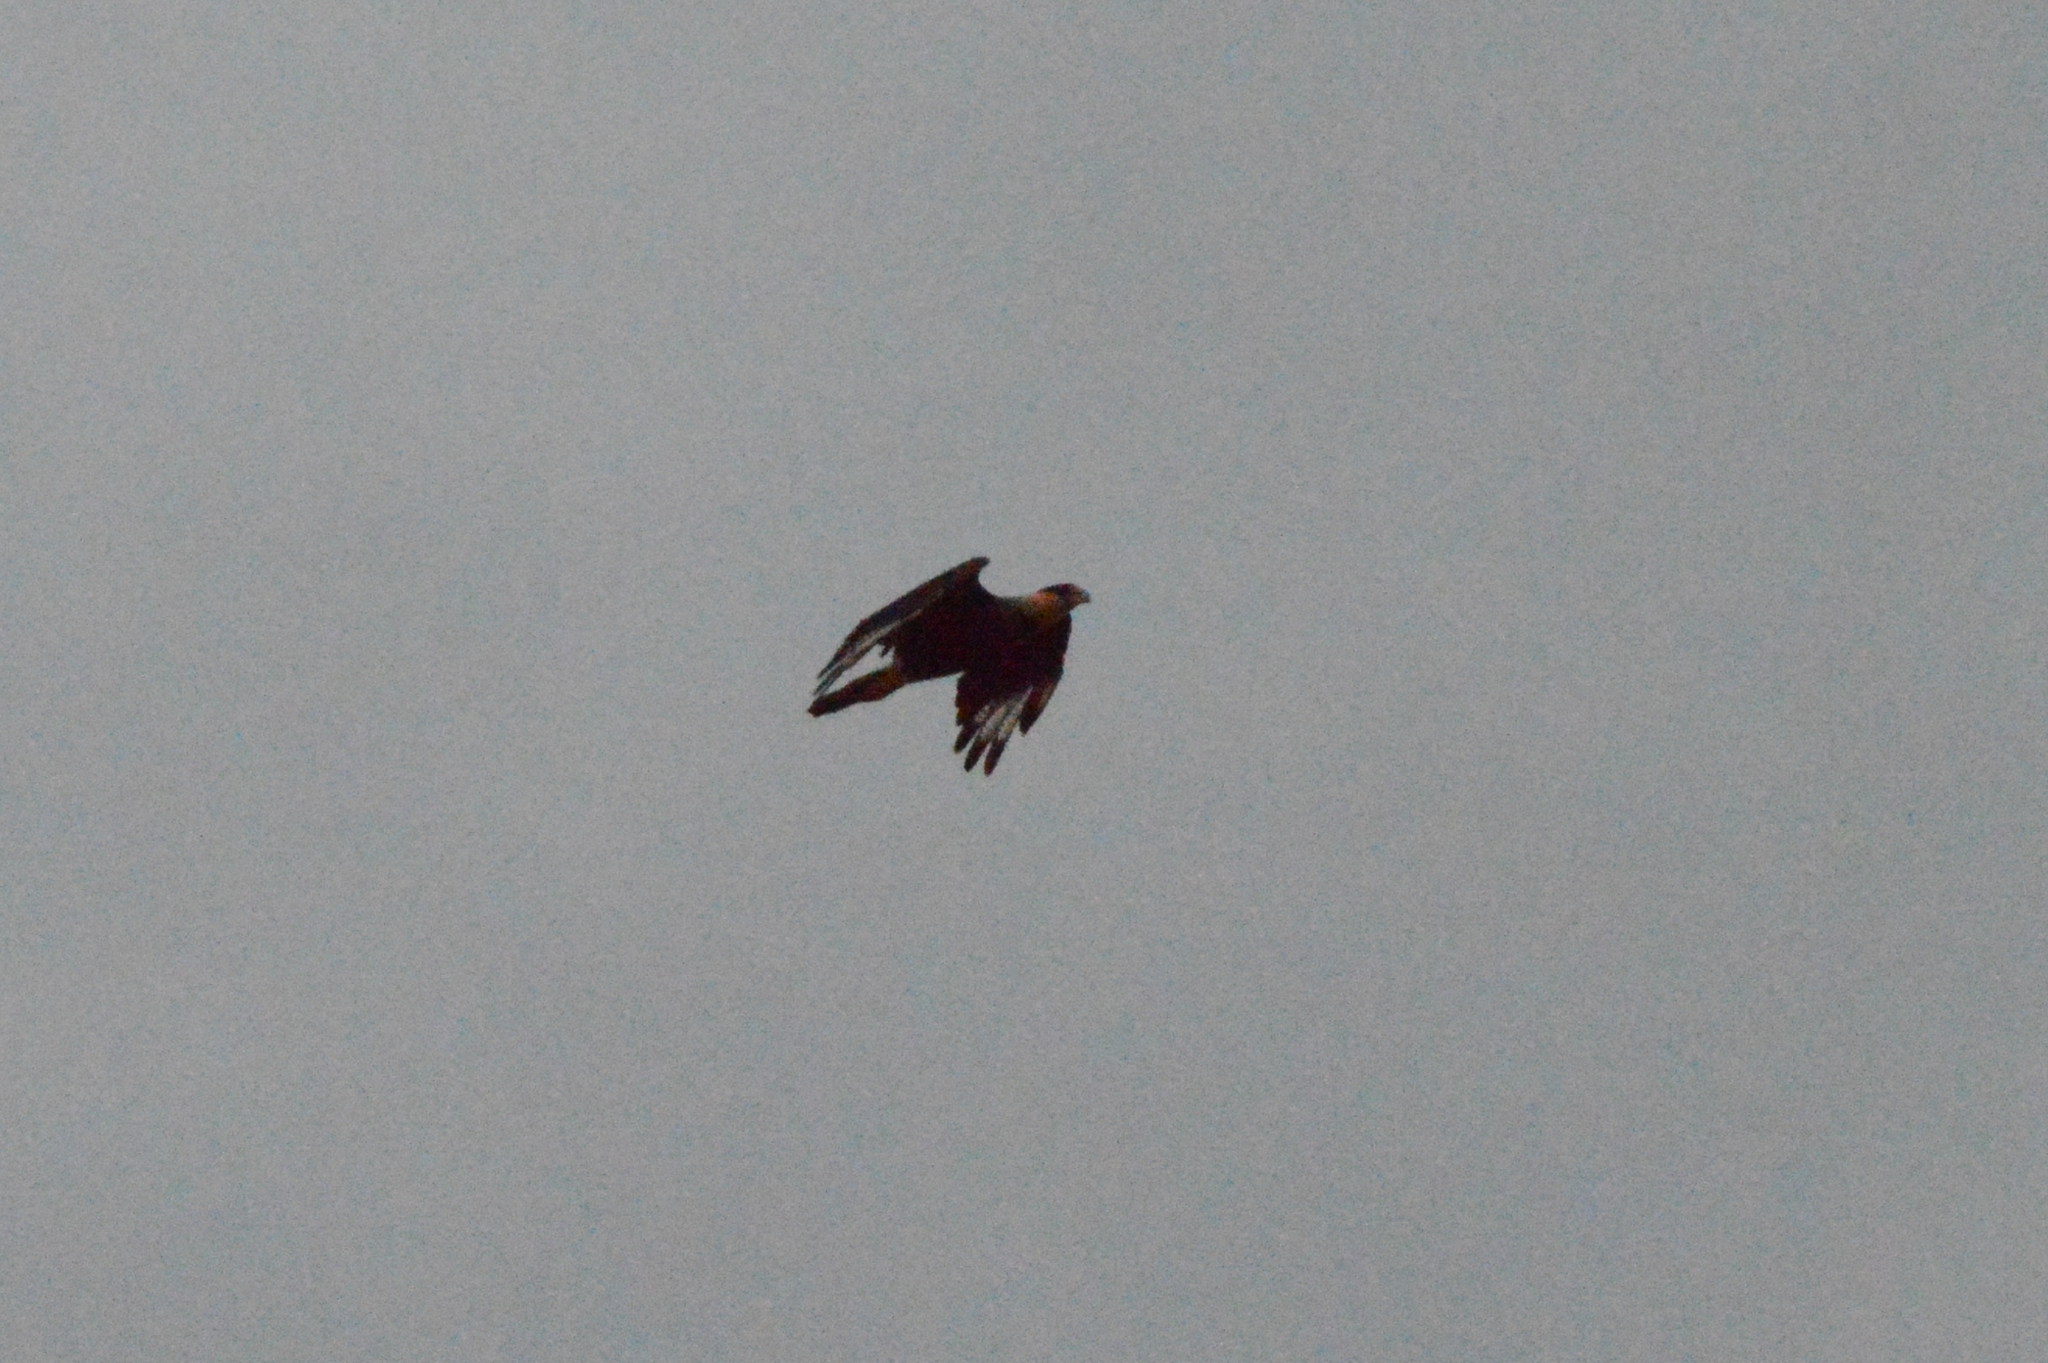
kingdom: Animalia
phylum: Chordata
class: Aves
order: Falconiformes
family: Falconidae
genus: Caracara
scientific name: Caracara plancus
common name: Southern caracara
